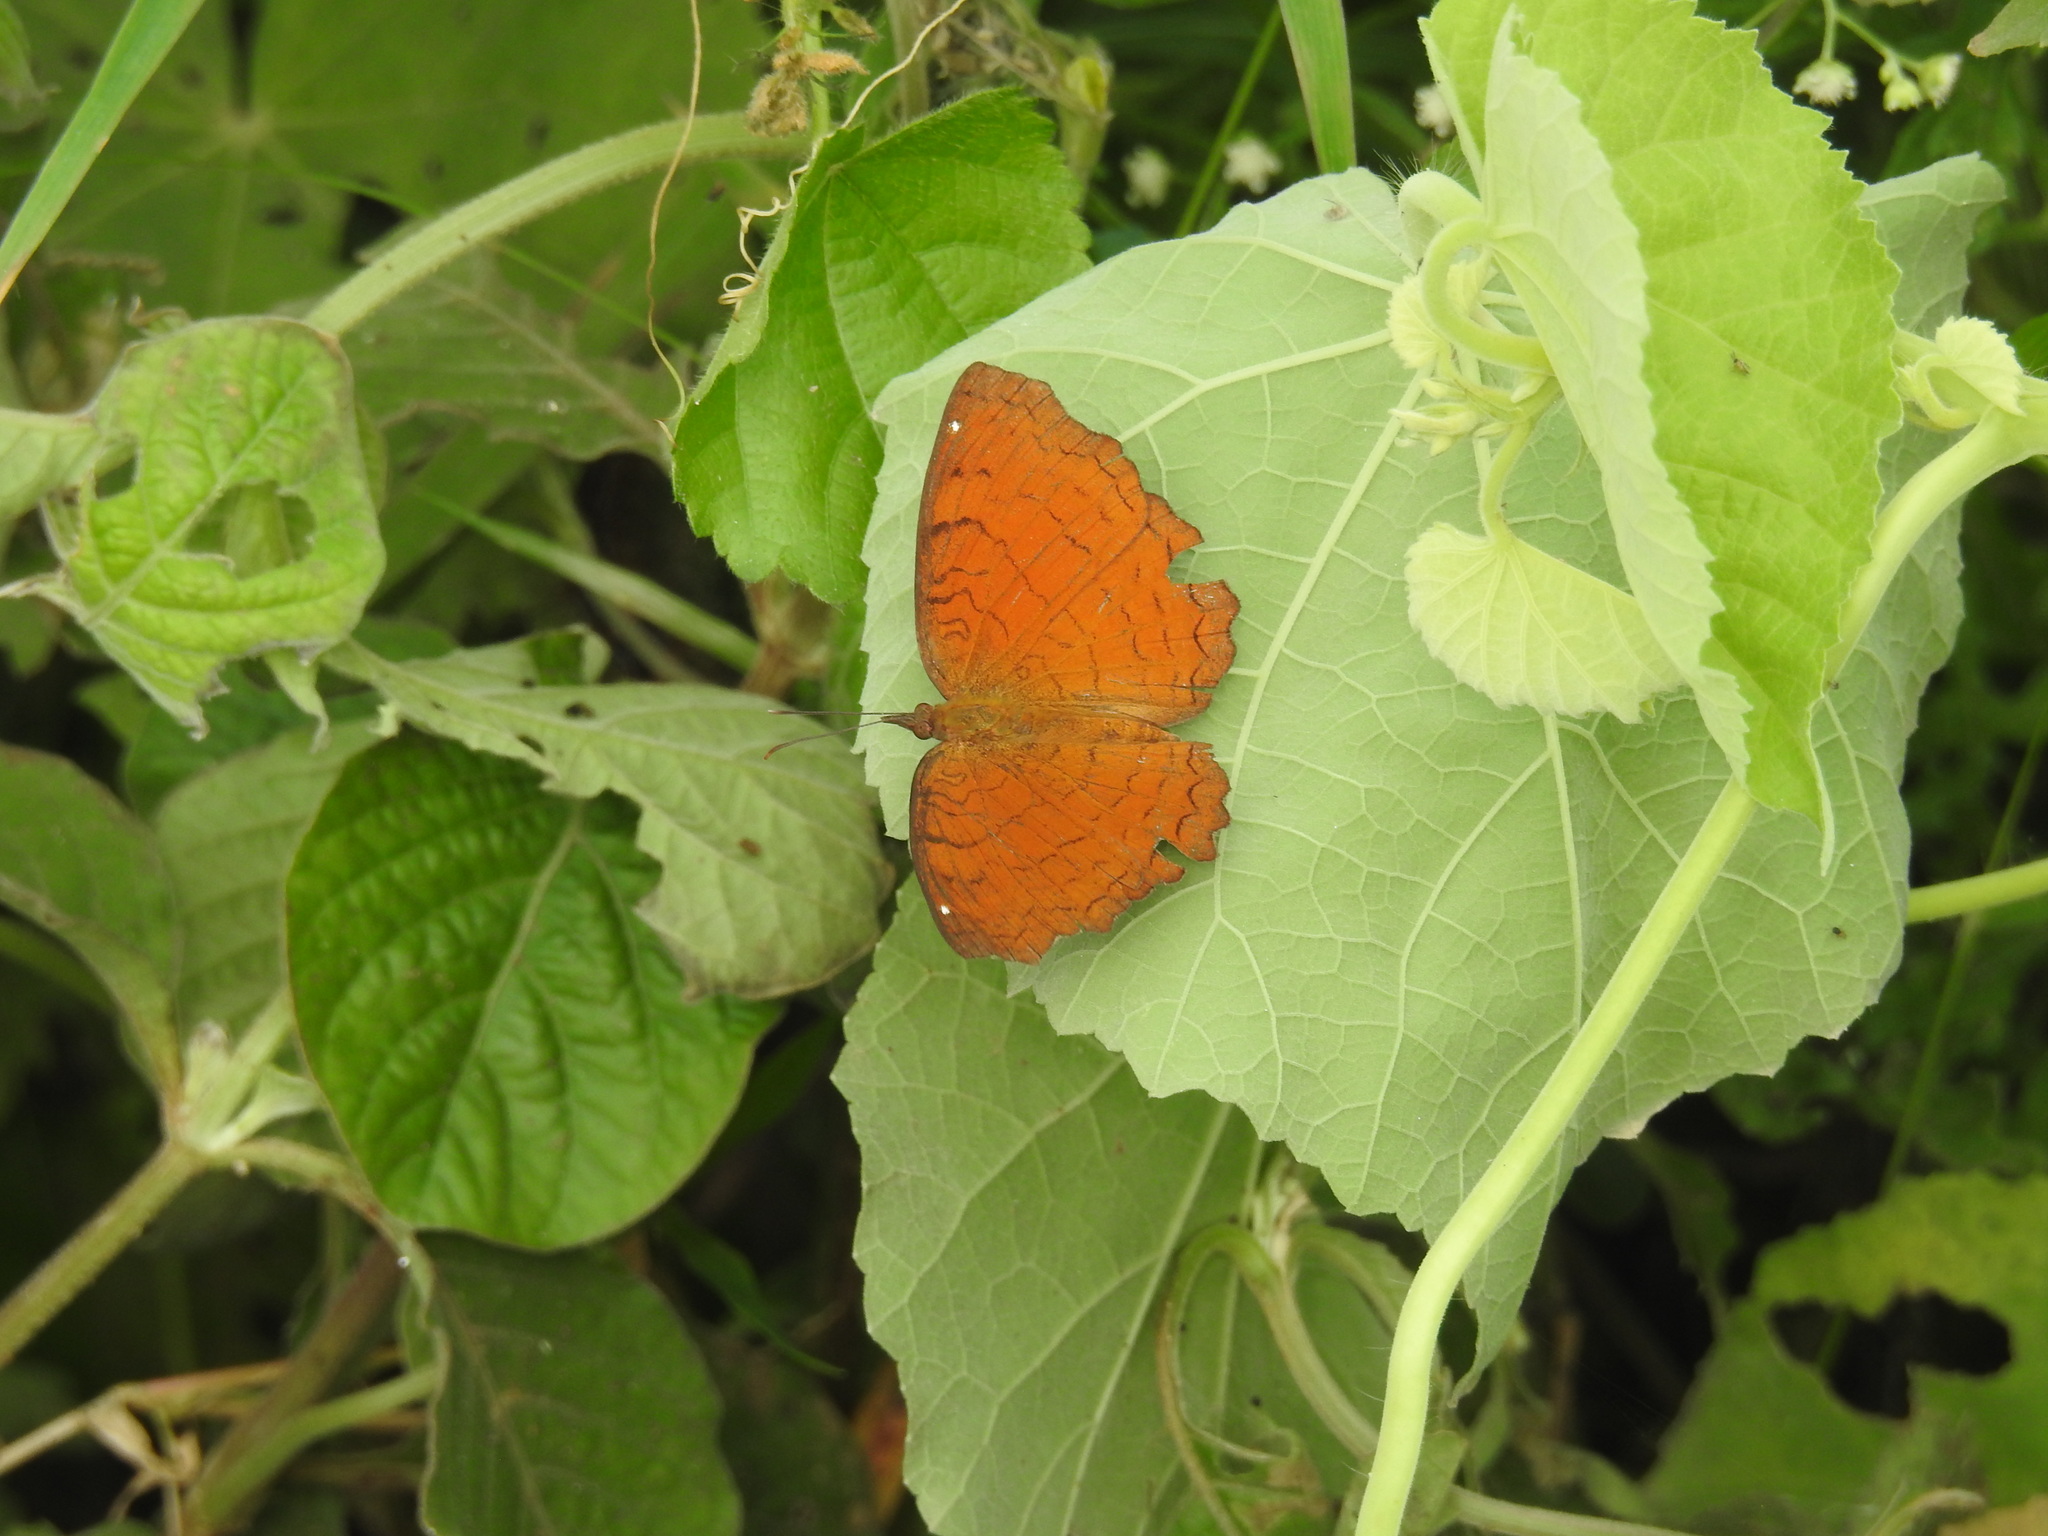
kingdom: Animalia
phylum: Arthropoda
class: Insecta
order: Lepidoptera
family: Nymphalidae
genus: Ariadne
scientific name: Ariadne ariadne
